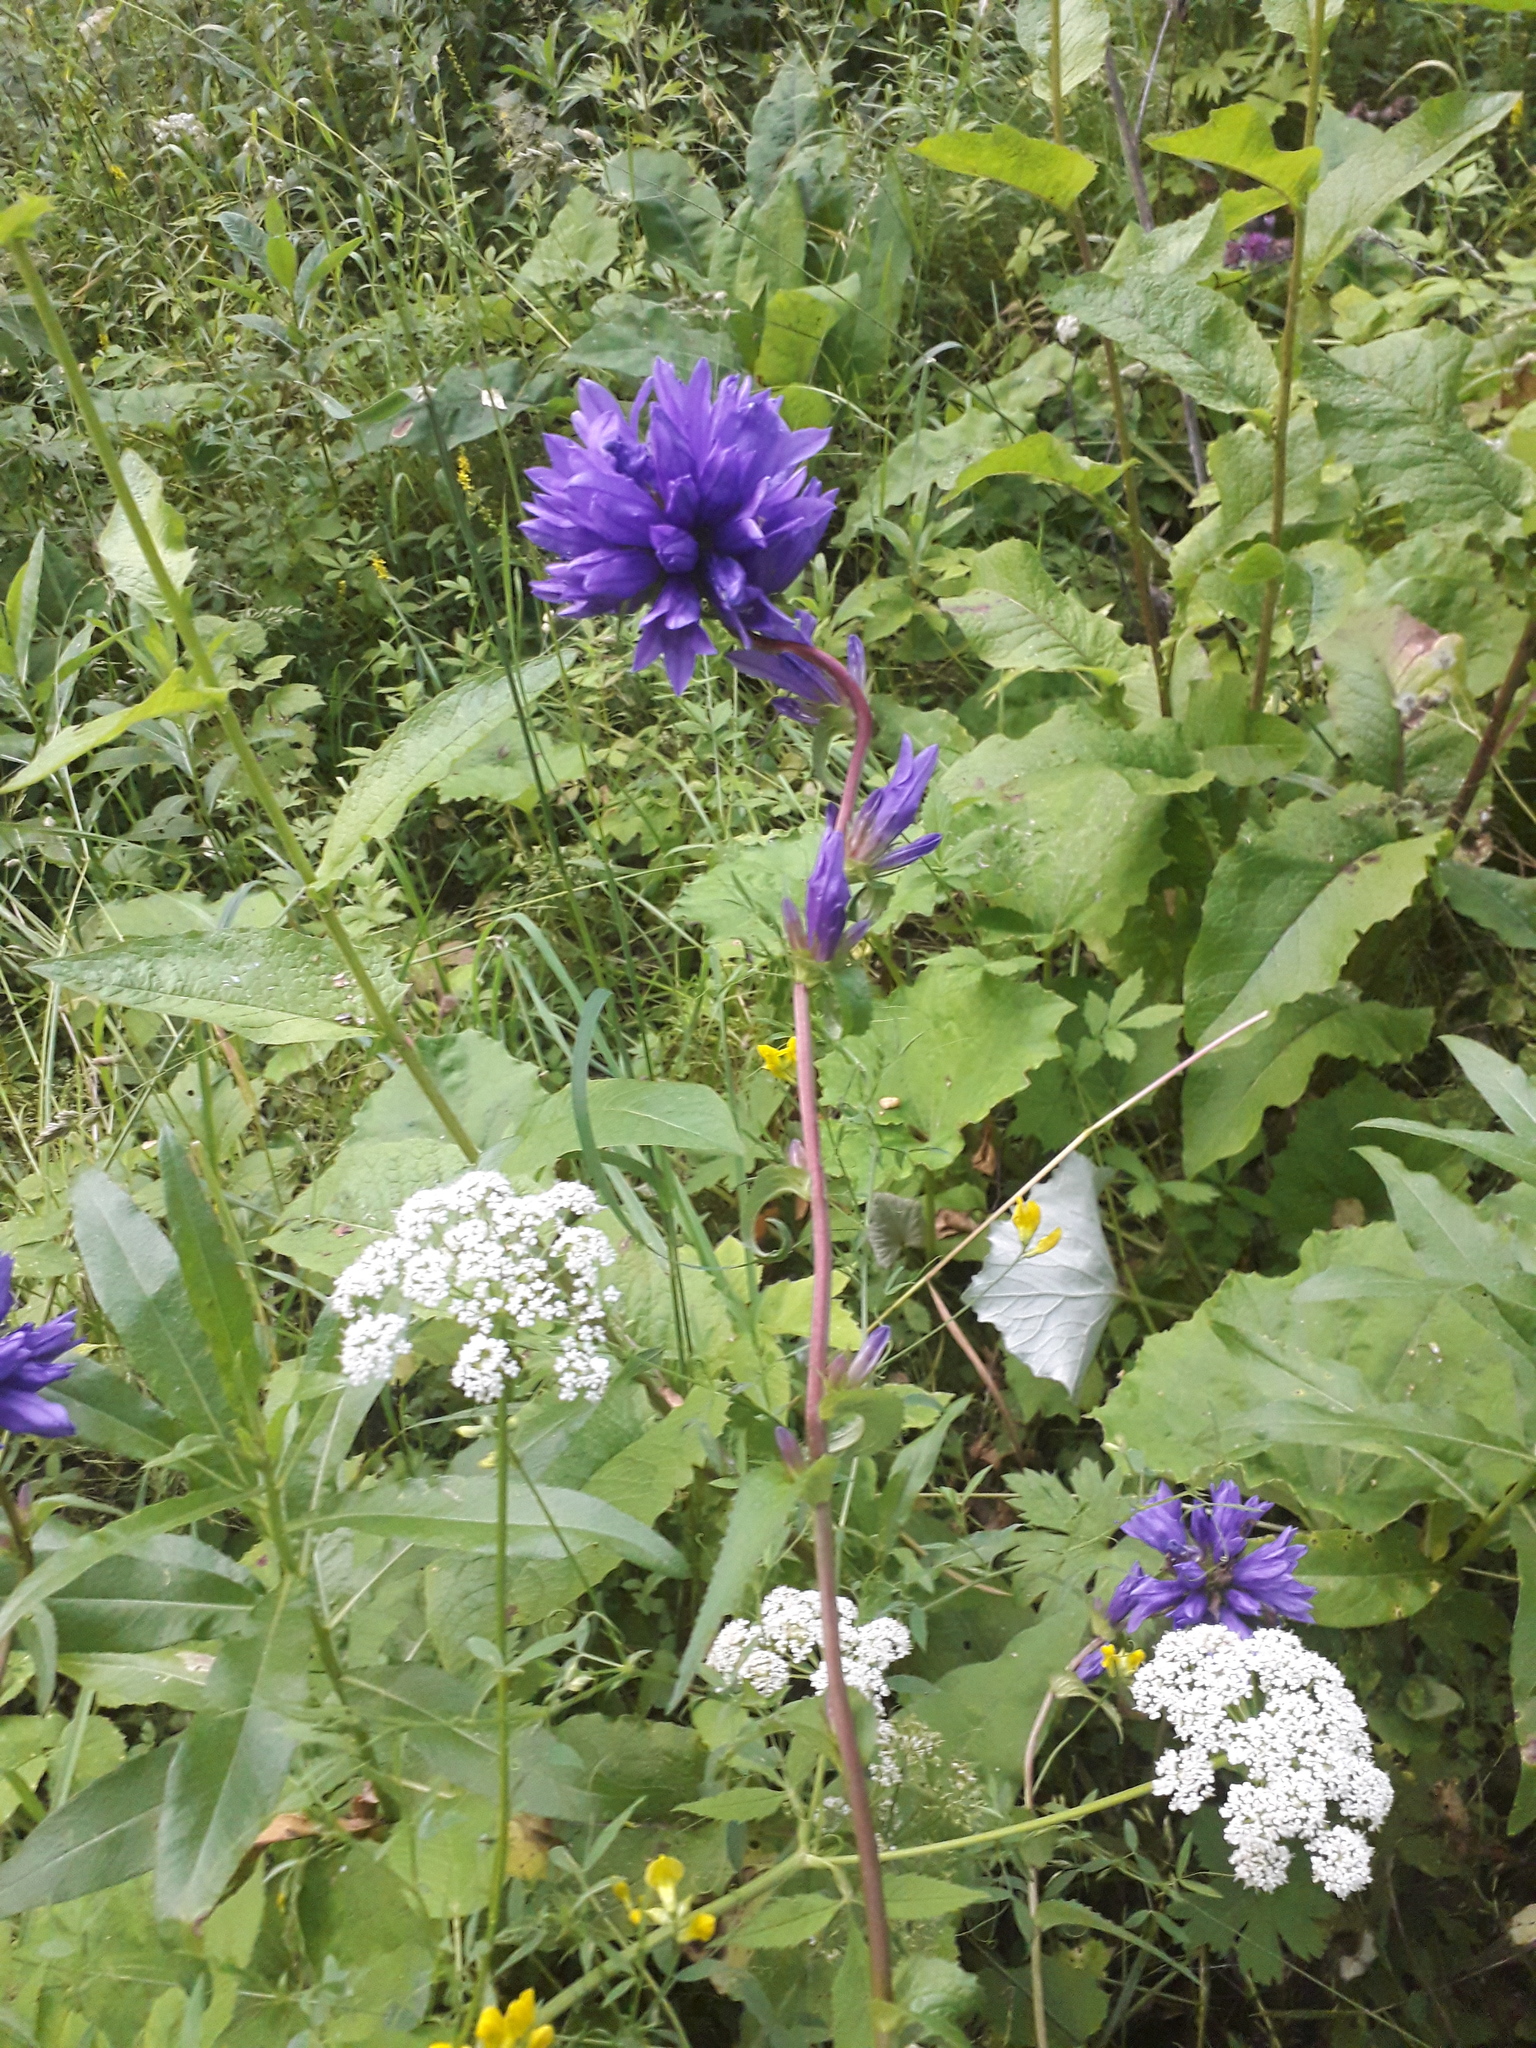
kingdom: Plantae
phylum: Tracheophyta
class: Magnoliopsida
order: Asterales
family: Campanulaceae
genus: Campanula
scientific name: Campanula glomerata
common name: Clustered bellflower
